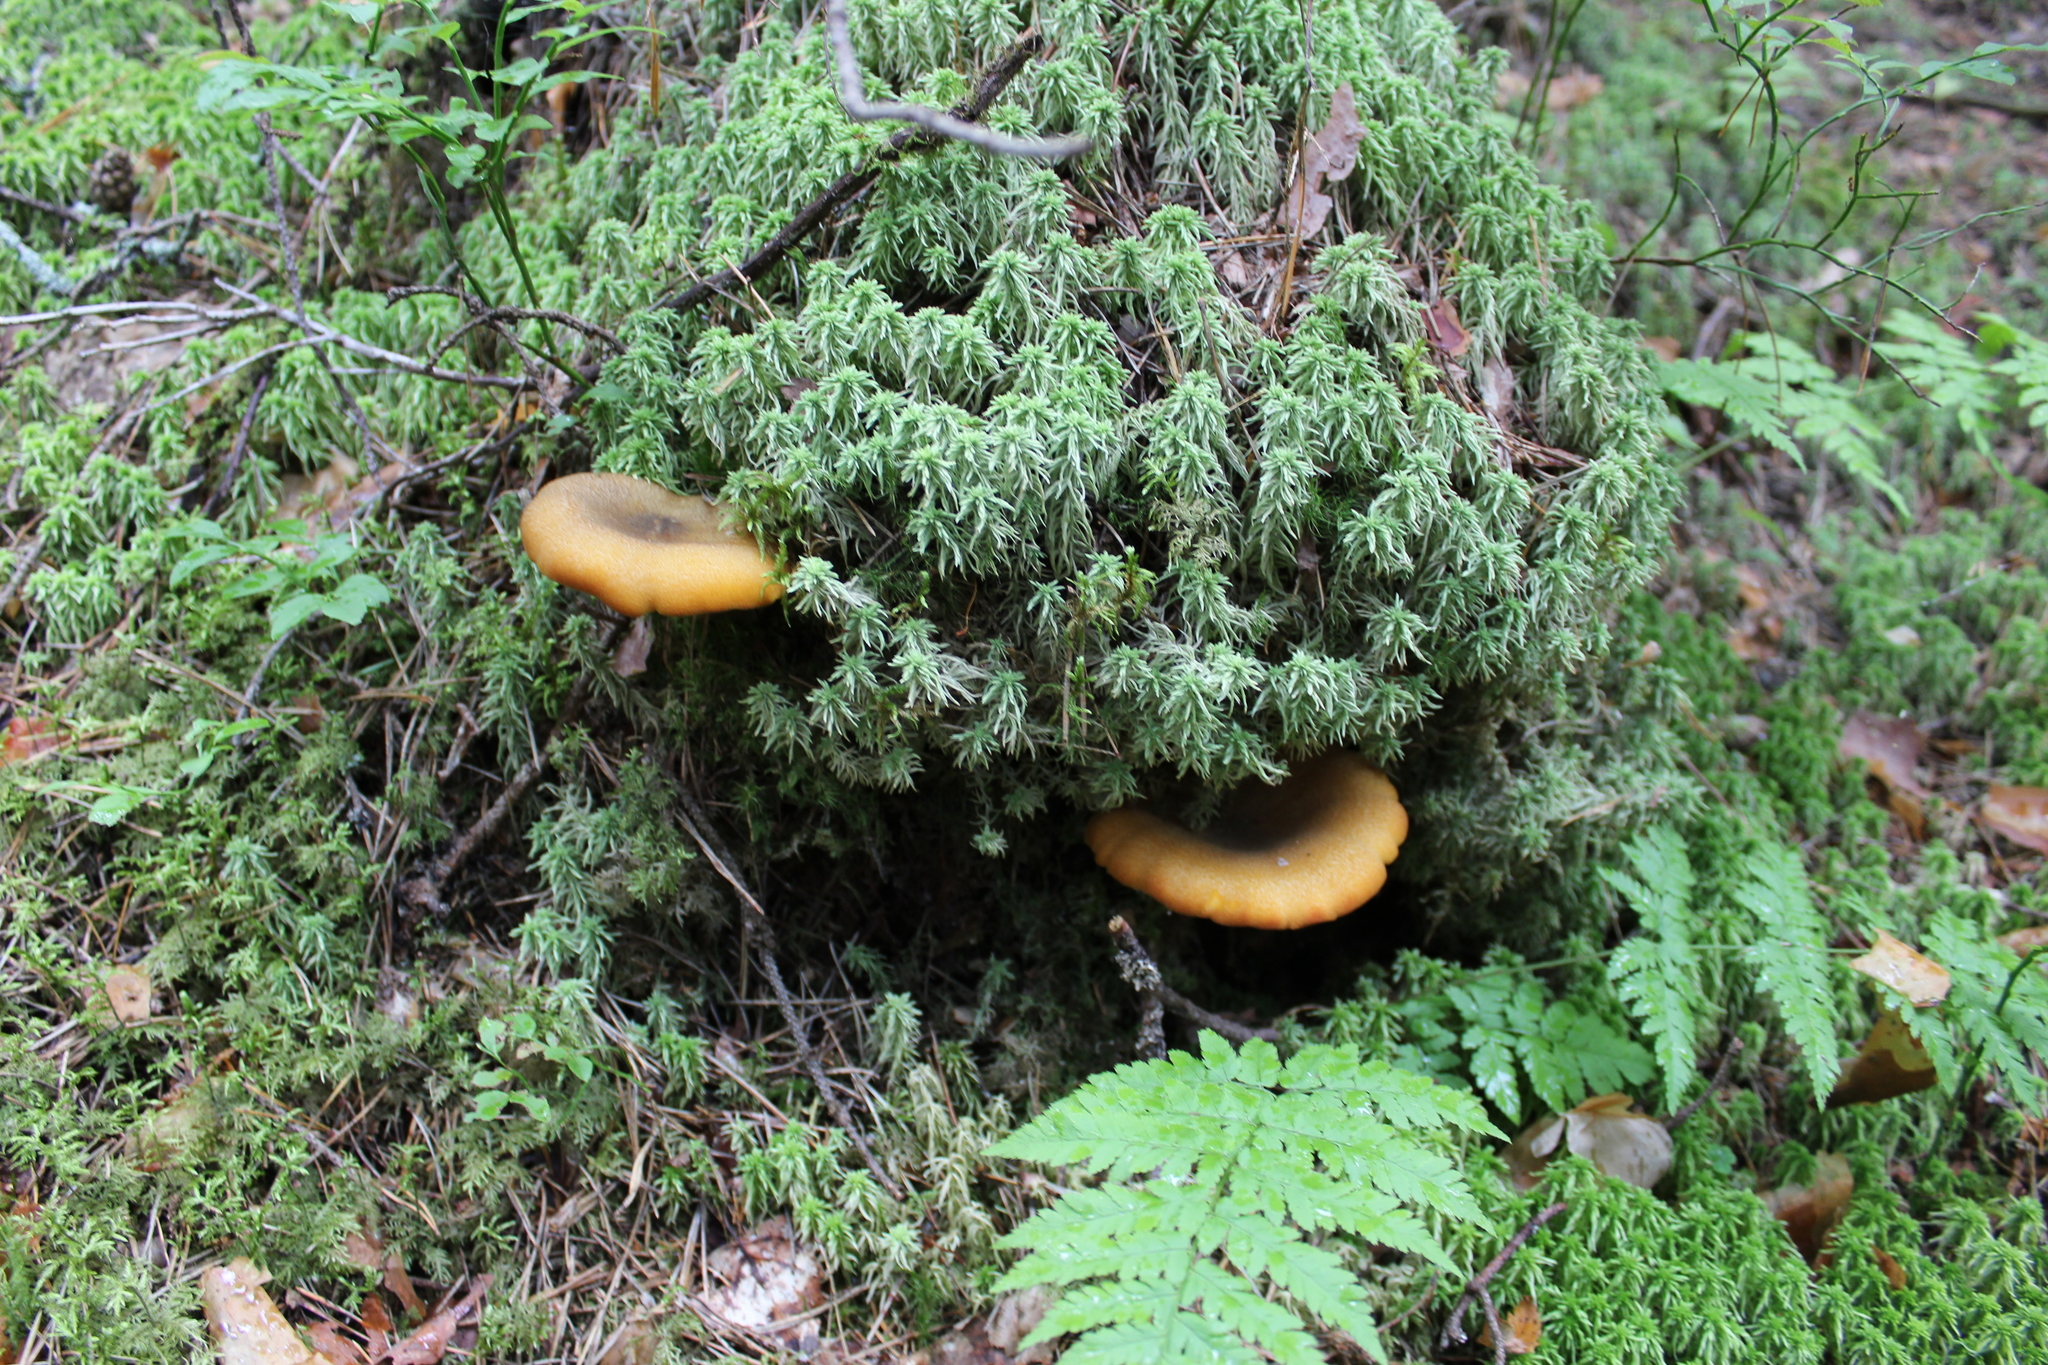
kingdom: Fungi
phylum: Basidiomycota
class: Agaricomycetes
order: Agaricales
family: Tricholomataceae
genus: Tricholomopsis
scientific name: Tricholomopsis decora
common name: Prunes and custard
